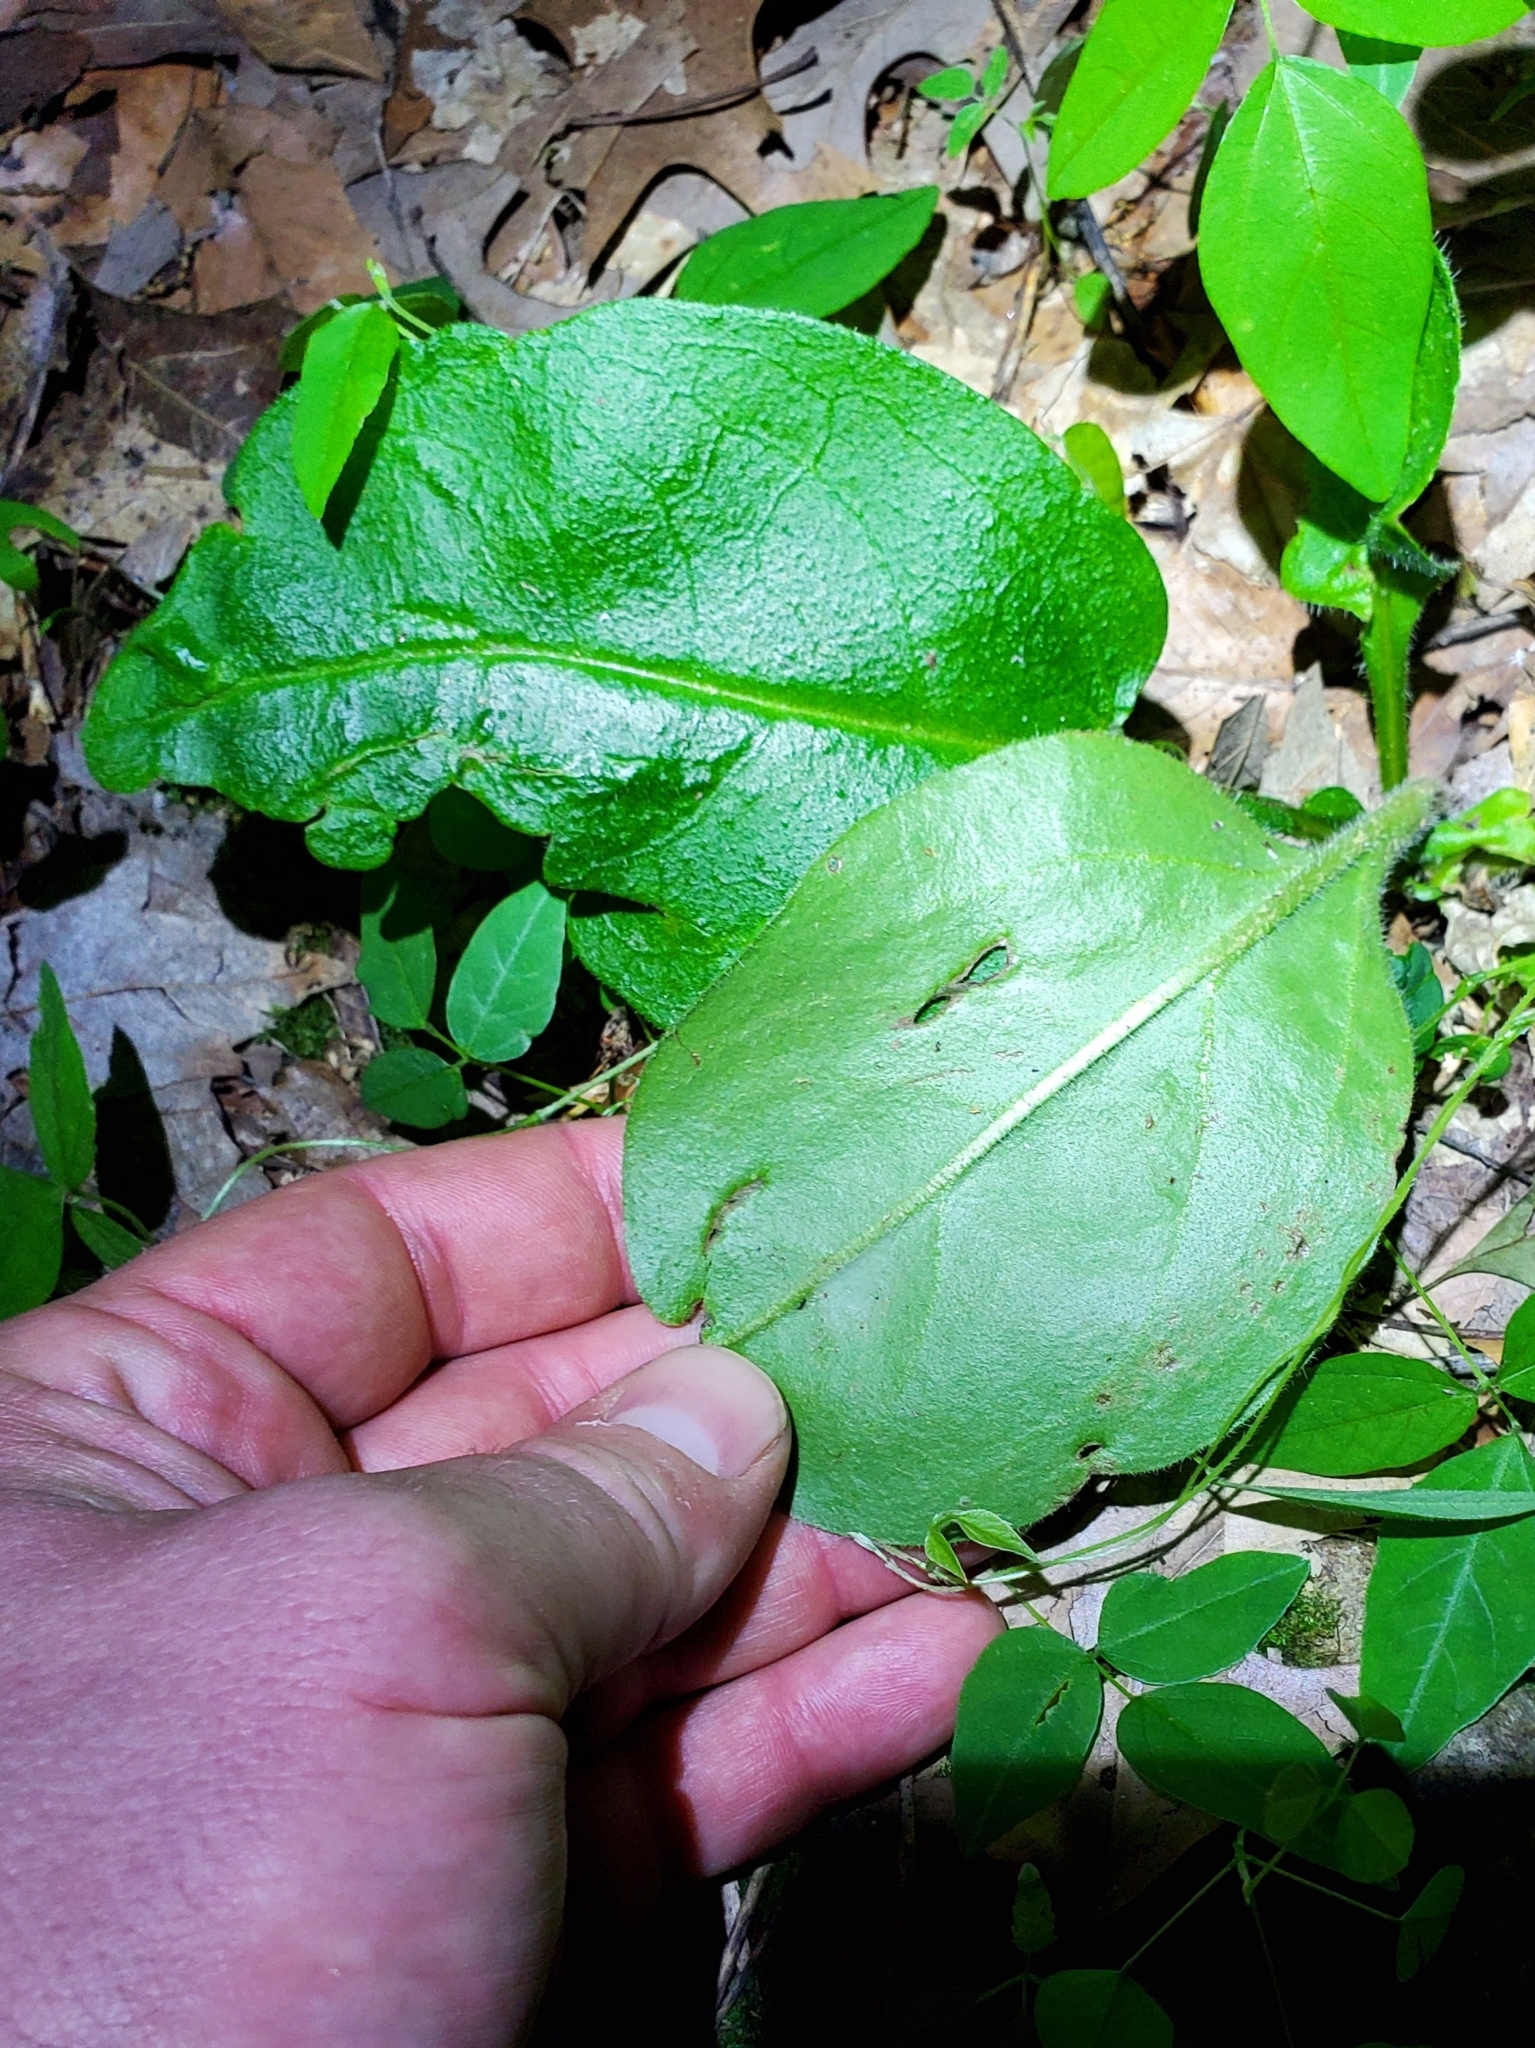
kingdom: Plantae
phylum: Tracheophyta
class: Magnoliopsida
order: Boraginales
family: Boraginaceae
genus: Andersonglossum
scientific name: Andersonglossum virginianum
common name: Wild comfrey
